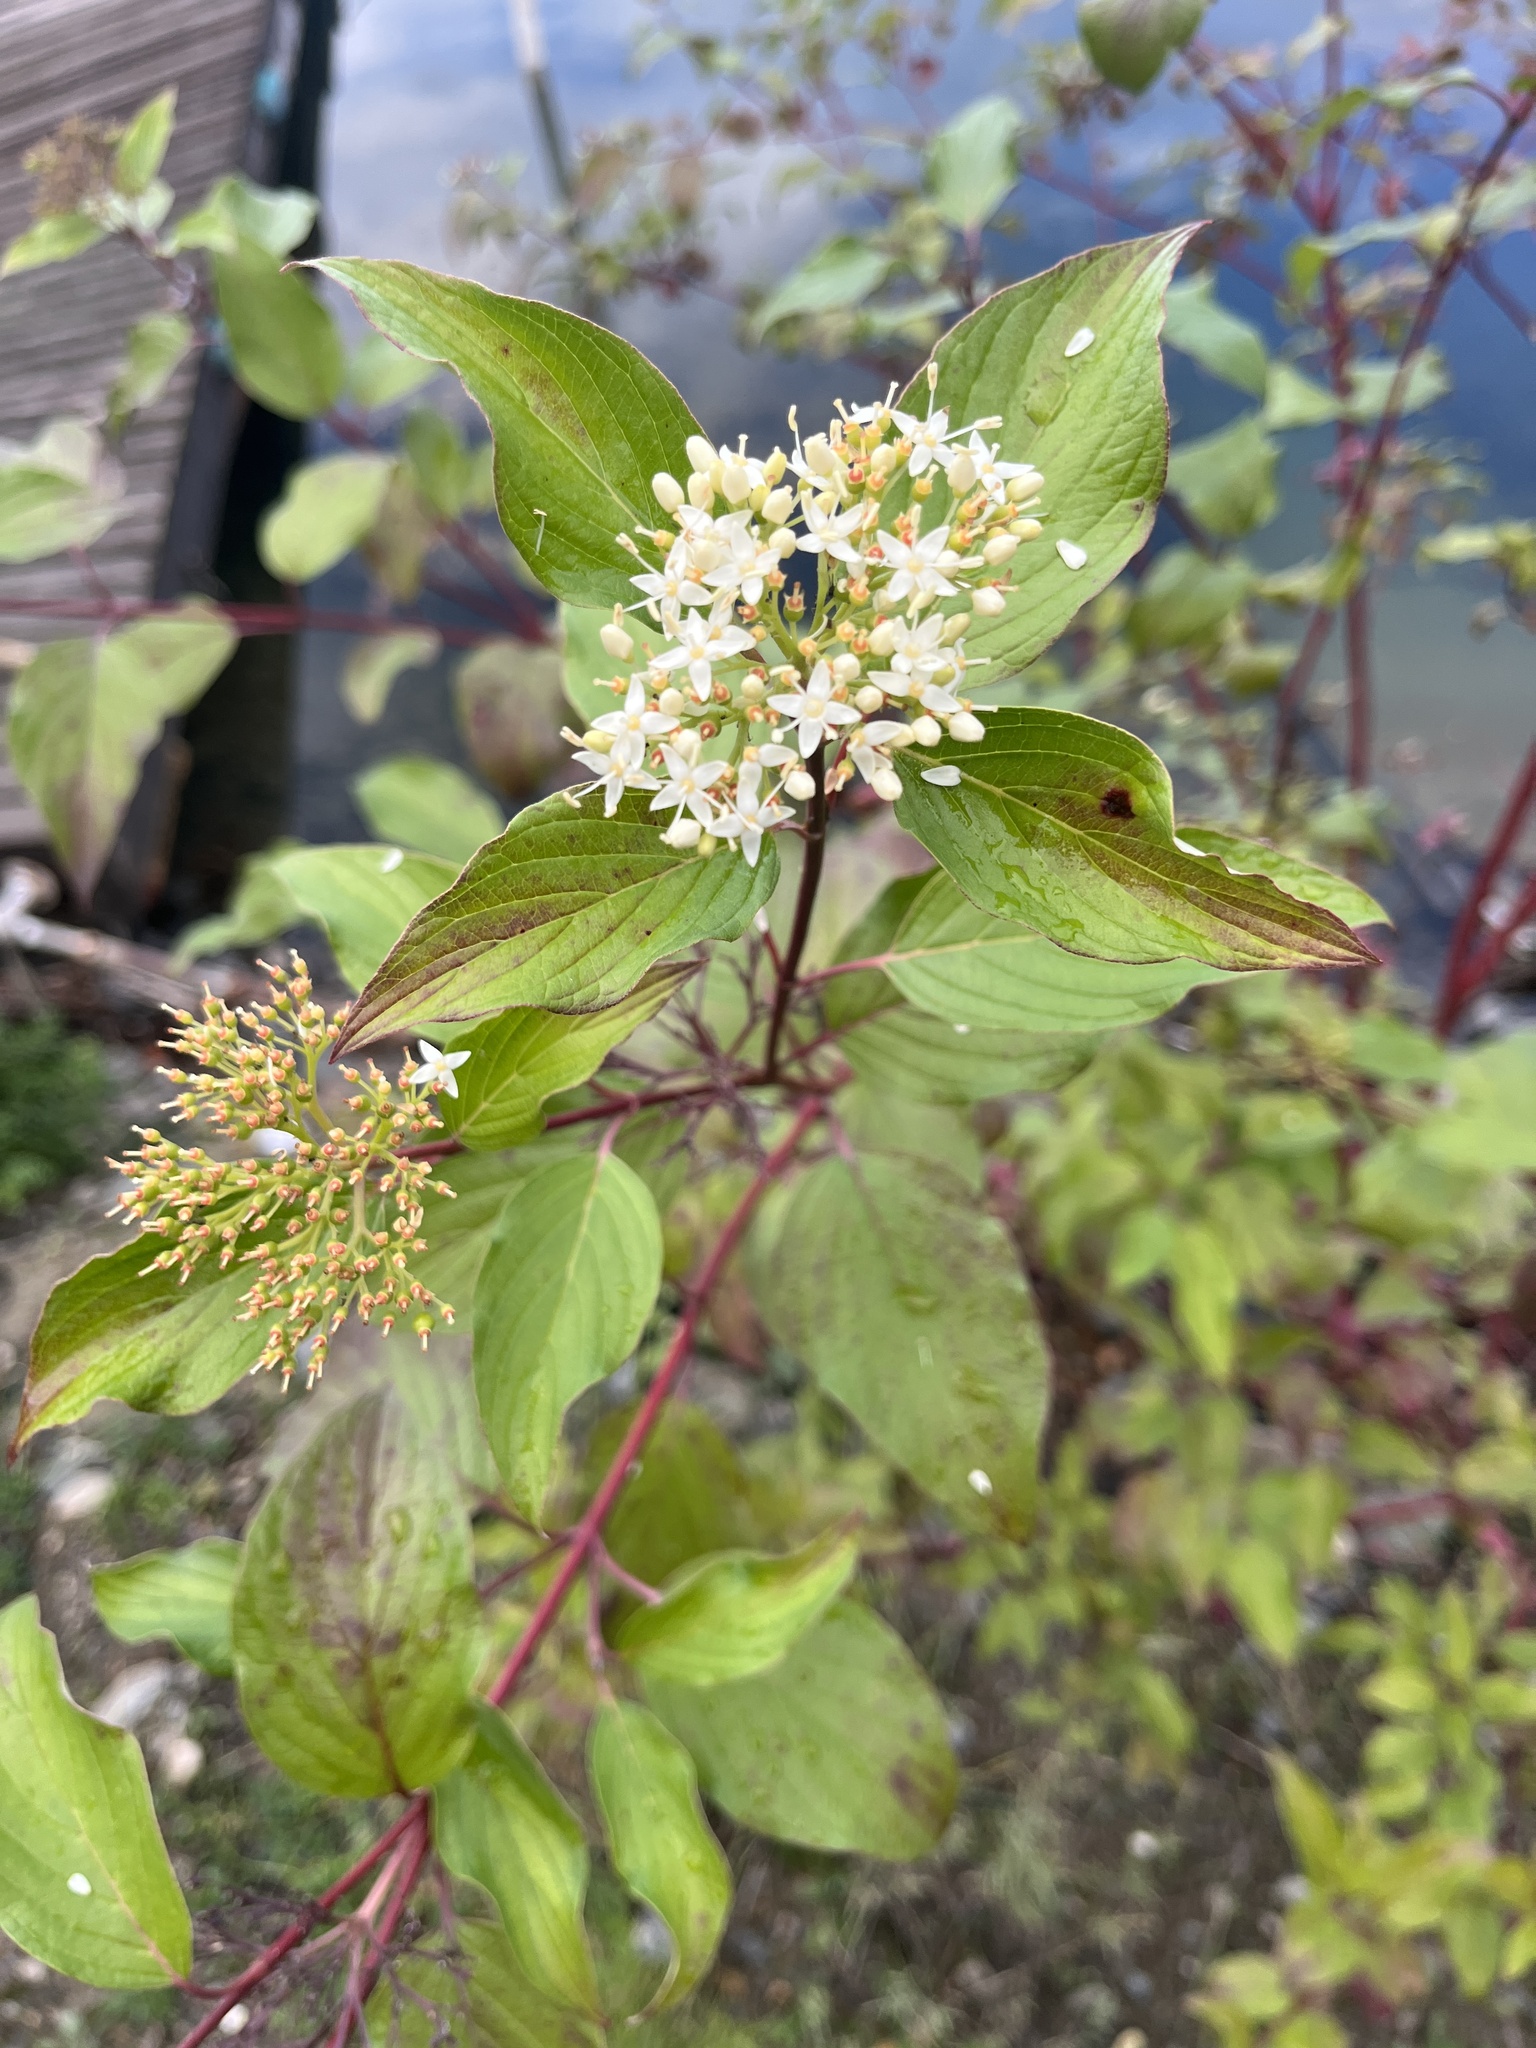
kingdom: Plantae
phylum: Tracheophyta
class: Magnoliopsida
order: Cornales
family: Cornaceae
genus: Cornus
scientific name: Cornus sericea
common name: Red-osier dogwood
